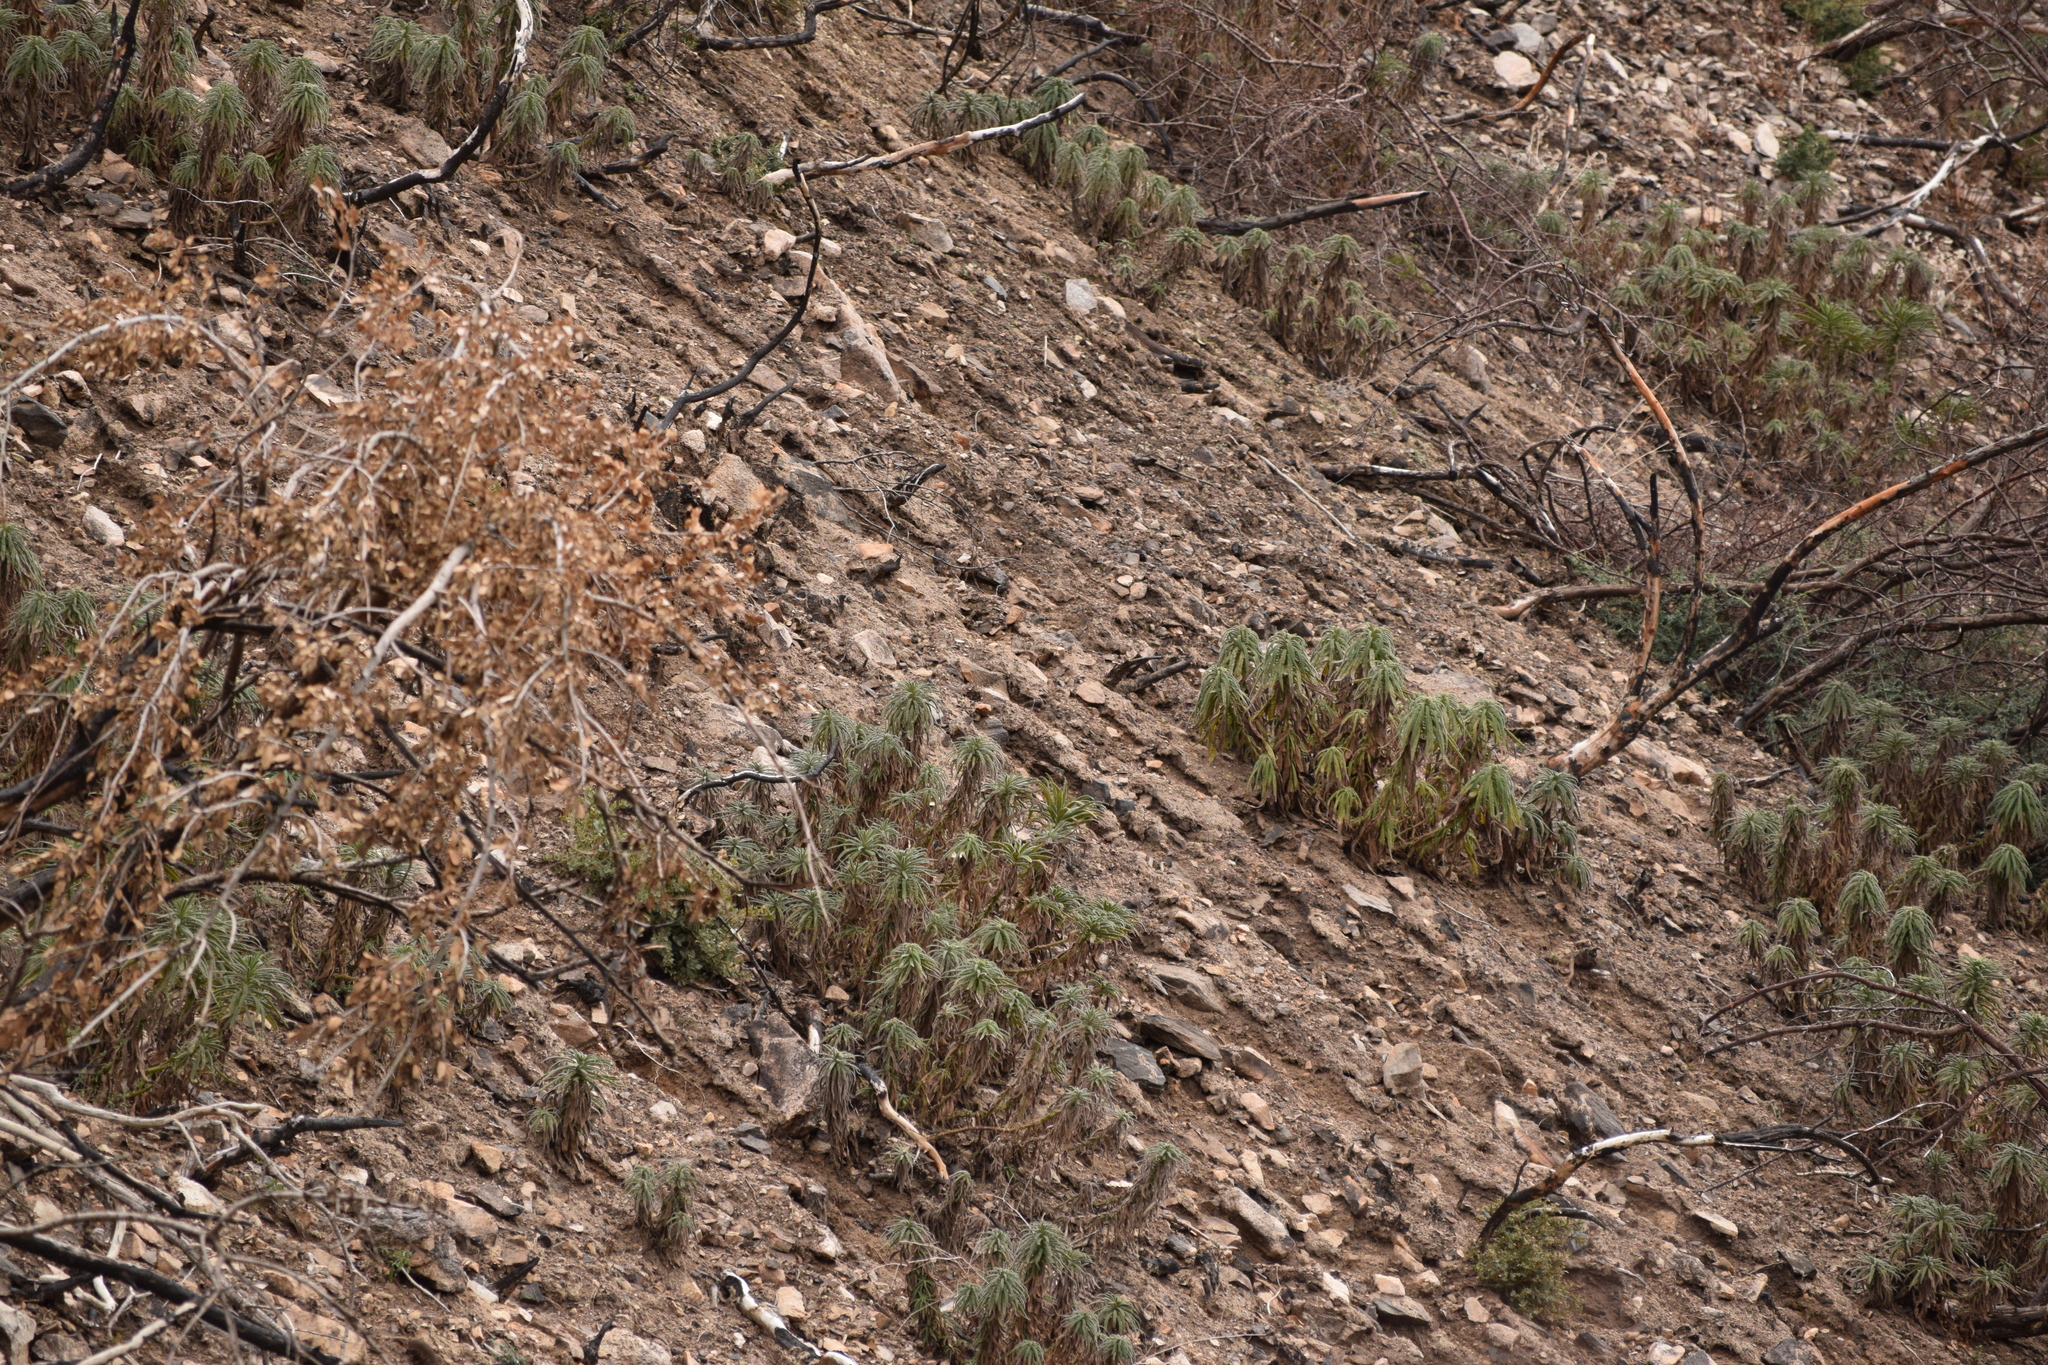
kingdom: Plantae
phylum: Tracheophyta
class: Magnoliopsida
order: Boraginales
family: Namaceae
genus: Turricula
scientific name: Turricula parryi
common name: Poodle-dog-bush
